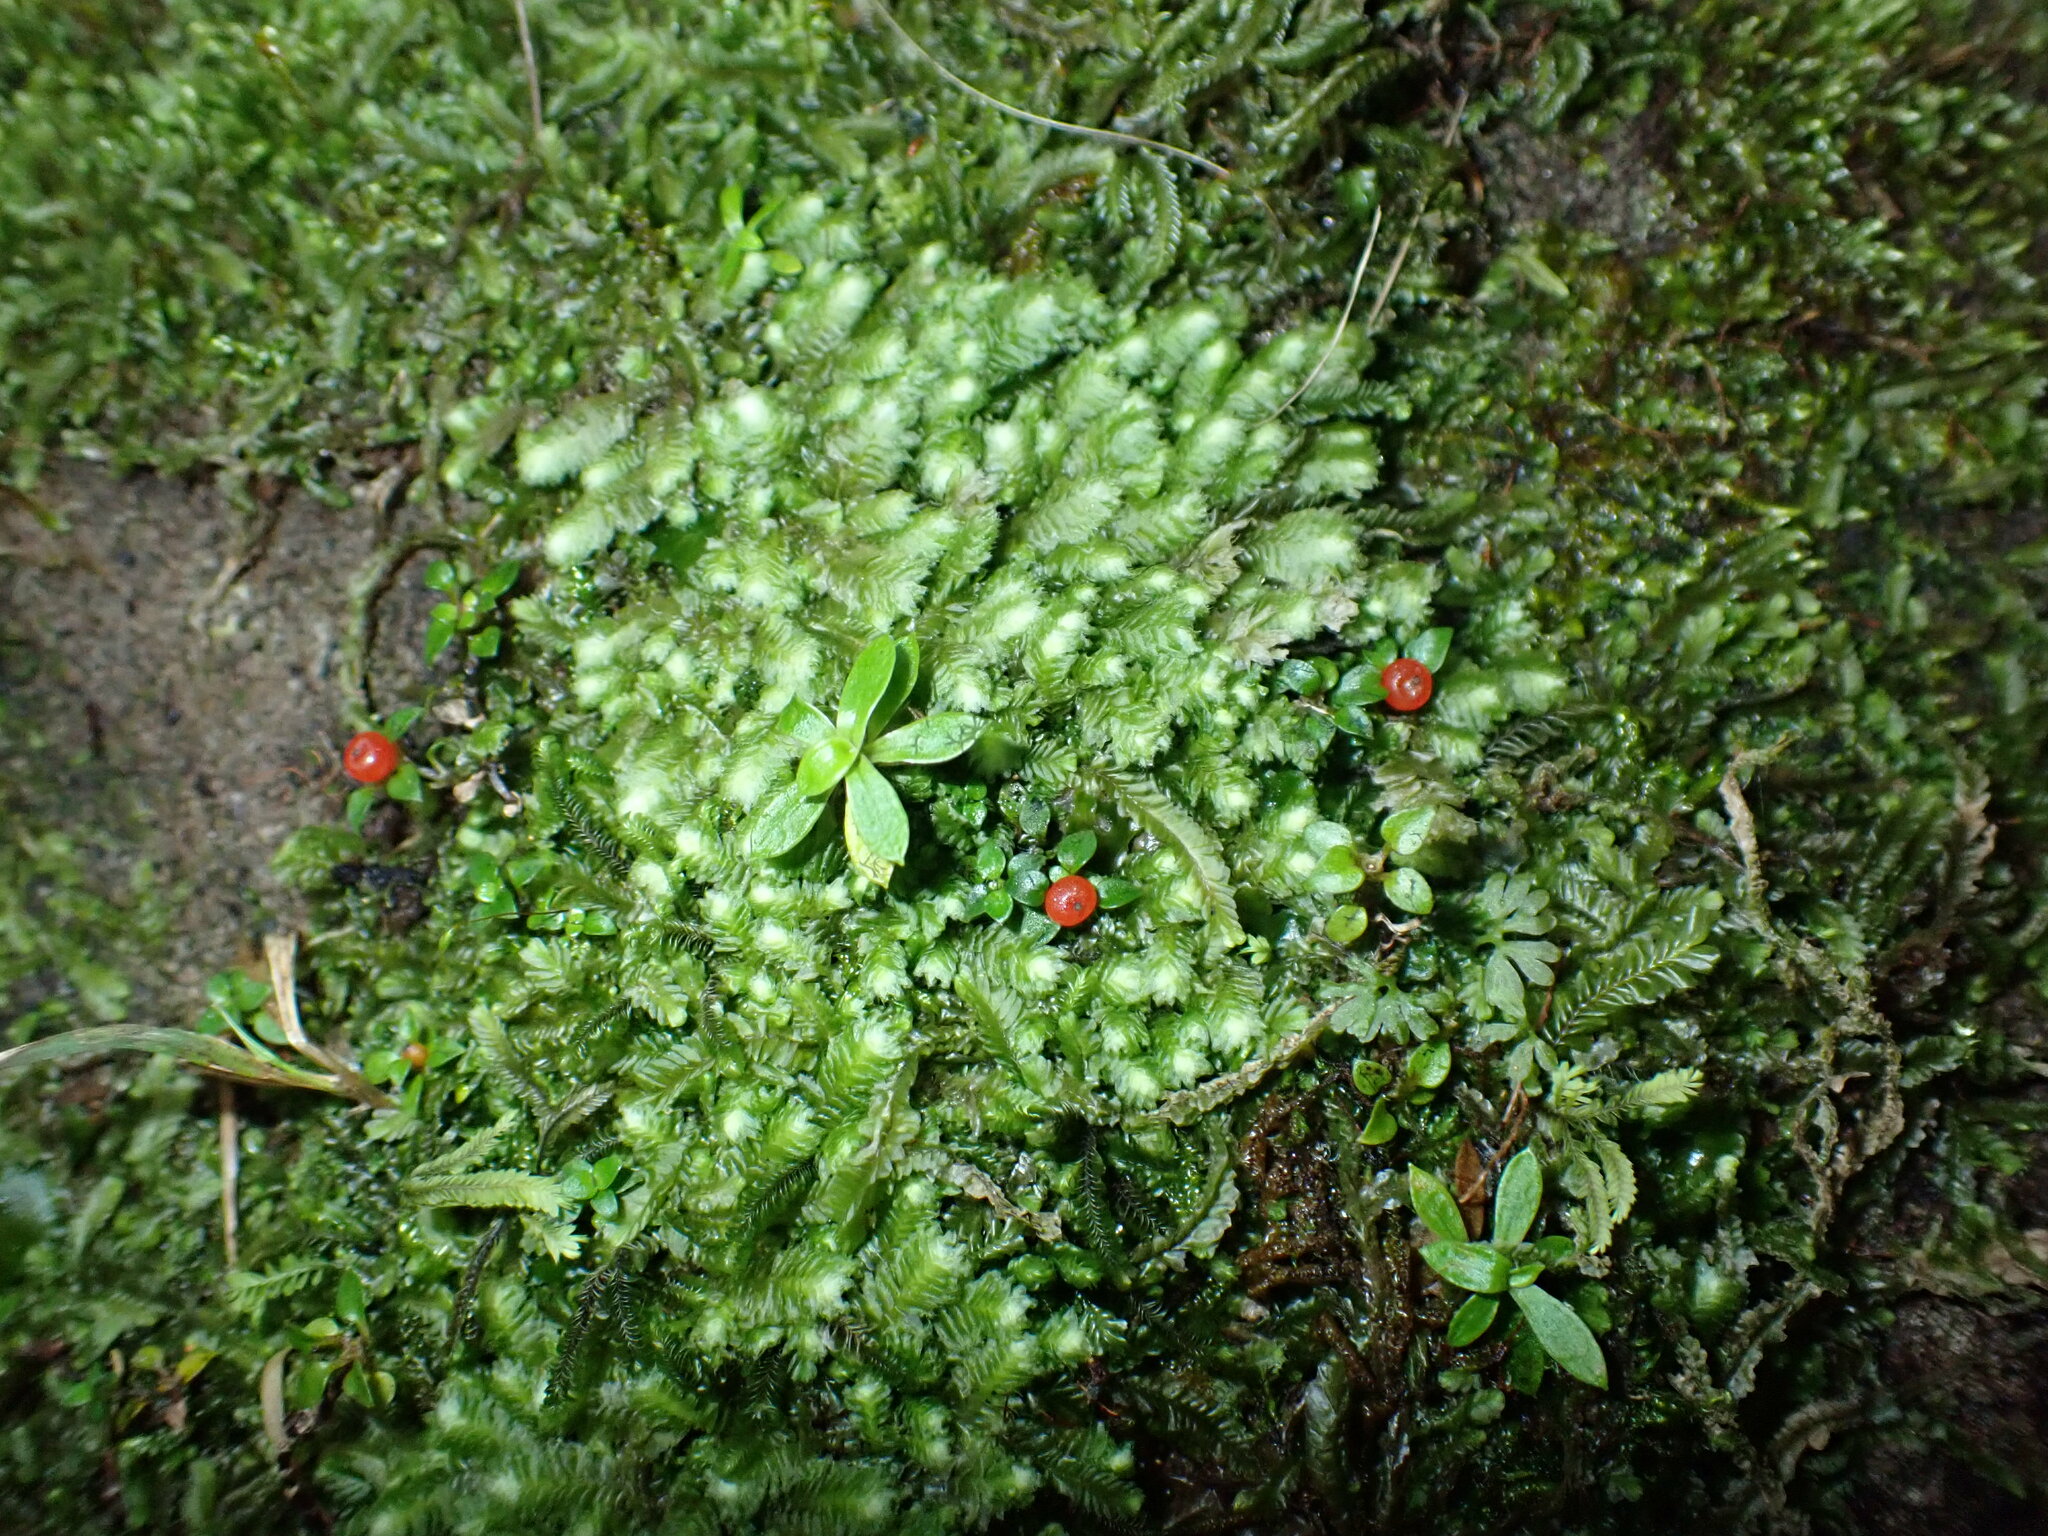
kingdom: Plantae
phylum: Tracheophyta
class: Magnoliopsida
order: Gentianales
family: Rubiaceae
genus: Nertera
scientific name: Nertera granadensis
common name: Beadplant
